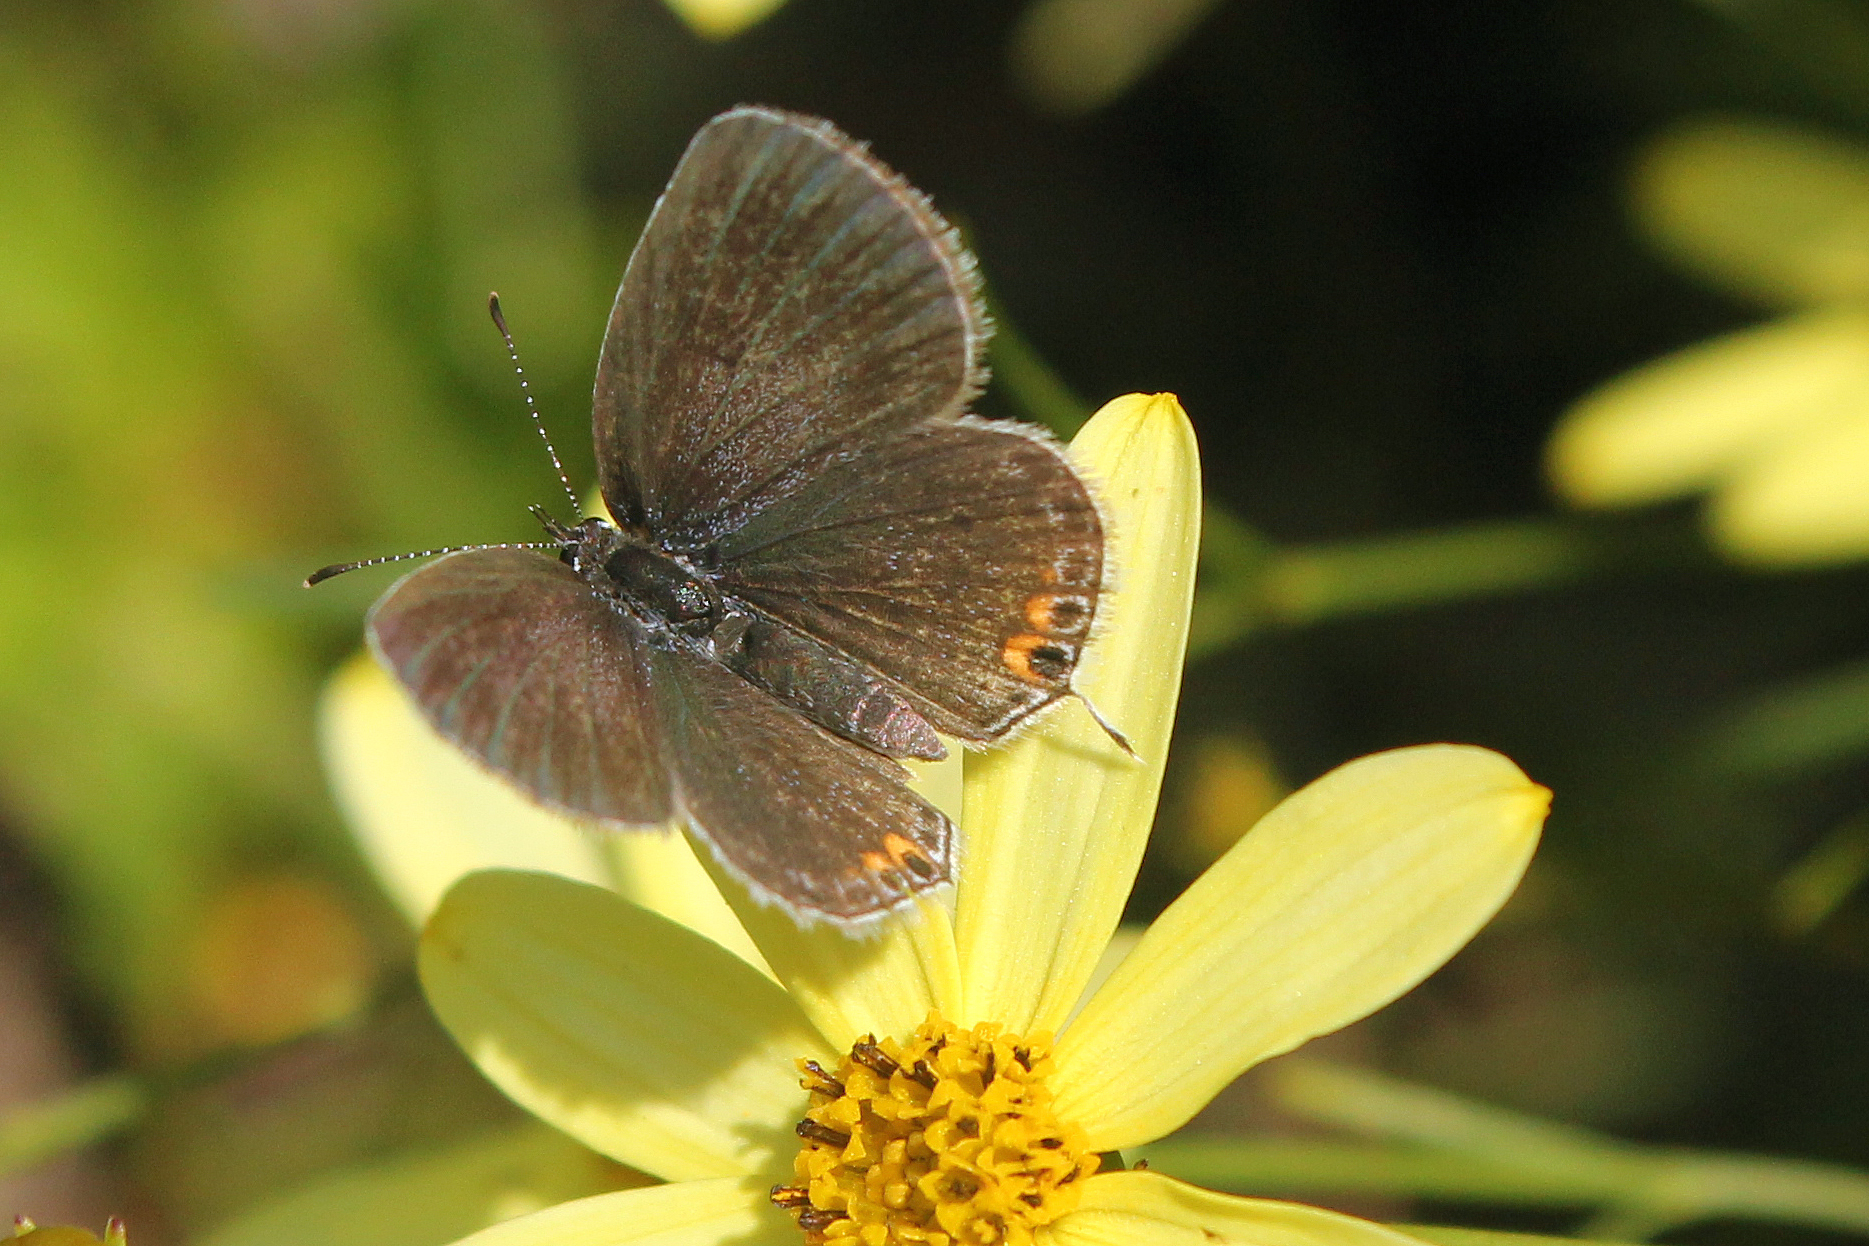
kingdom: Animalia
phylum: Arthropoda
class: Insecta
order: Lepidoptera
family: Lycaenidae
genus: Elkalyce
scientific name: Elkalyce comyntas
